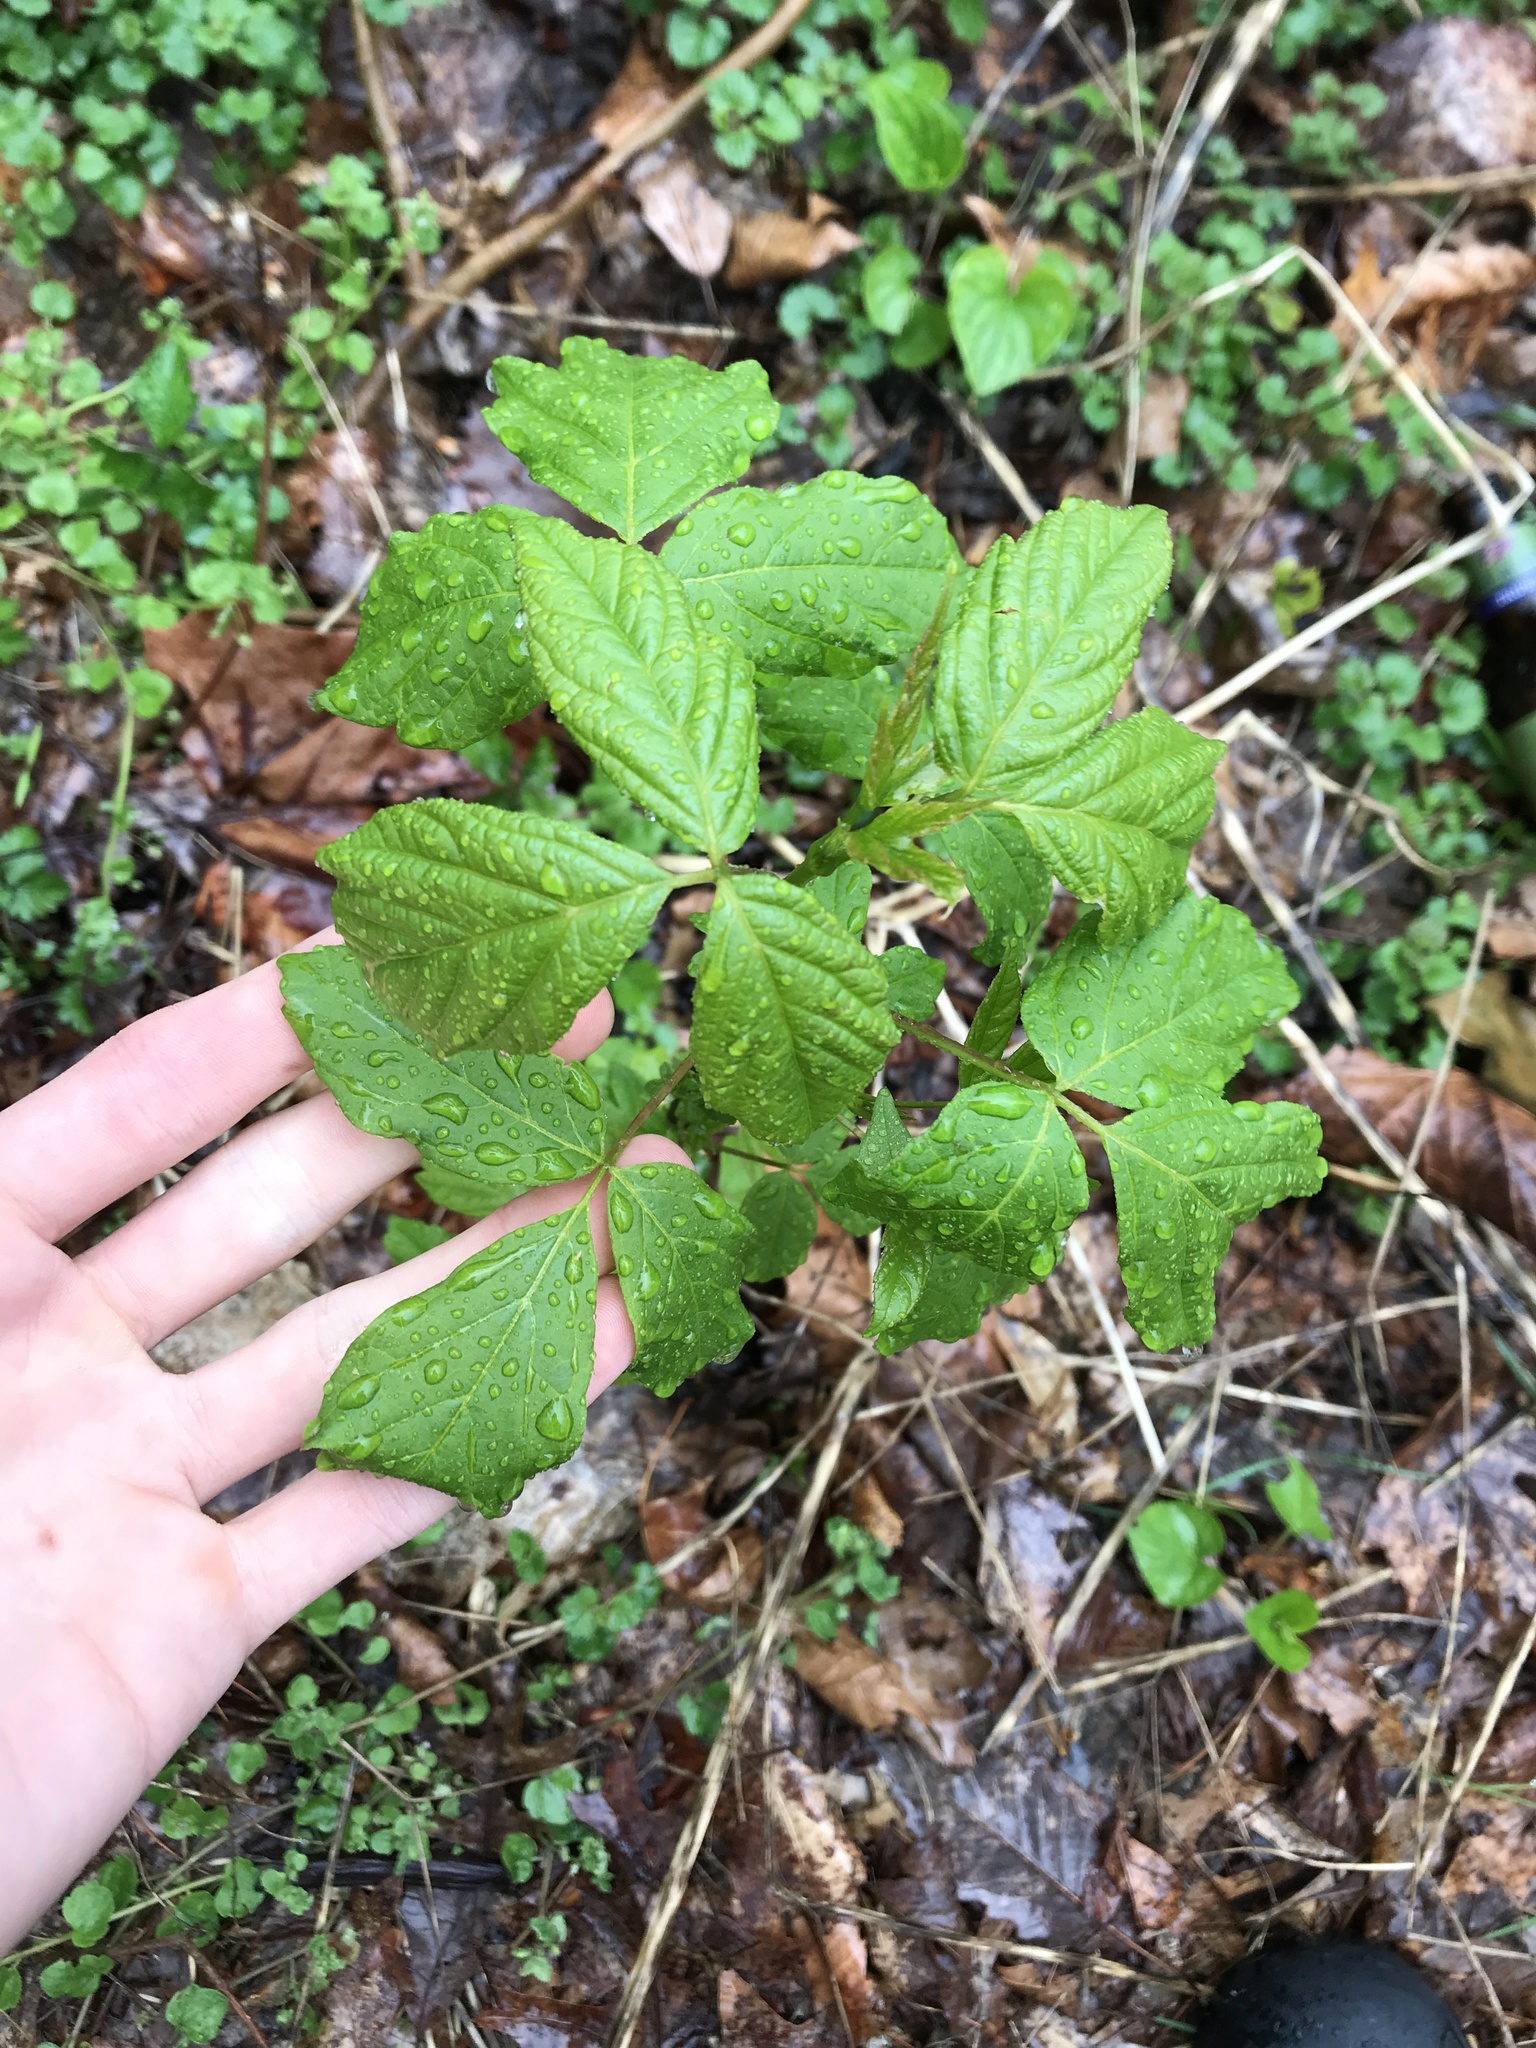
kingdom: Plantae
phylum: Tracheophyta
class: Magnoliopsida
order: Sapindales
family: Sapindaceae
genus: Acer
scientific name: Acer negundo
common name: Ashleaf maple
